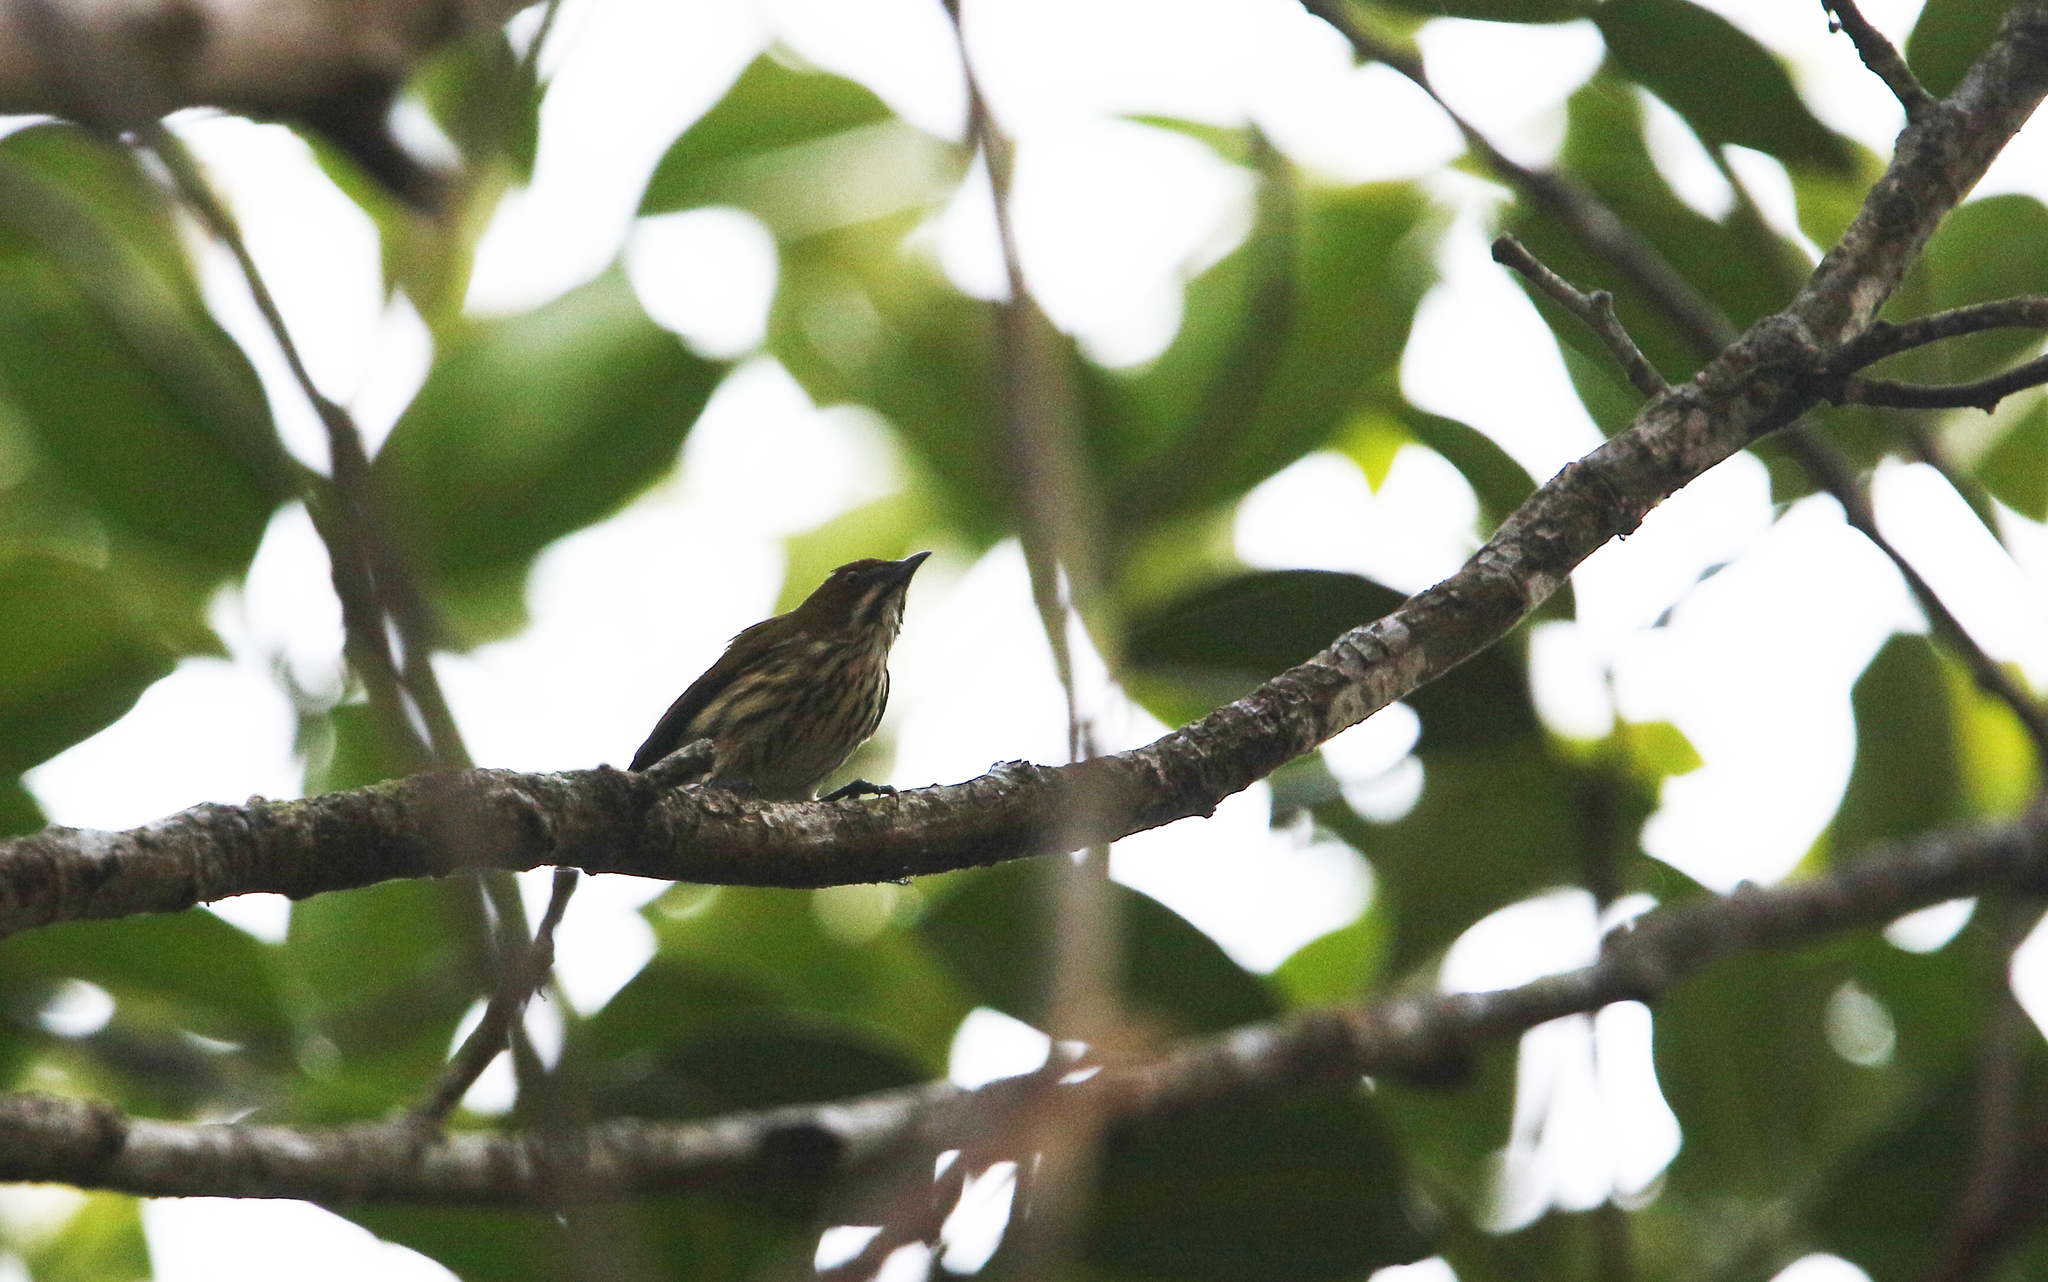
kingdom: Animalia
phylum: Chordata
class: Aves
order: Passeriformes
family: Dicaeidae
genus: Dicaeum
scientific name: Dicaeum chrysorrheum
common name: Yellow-vented flowerpecker
